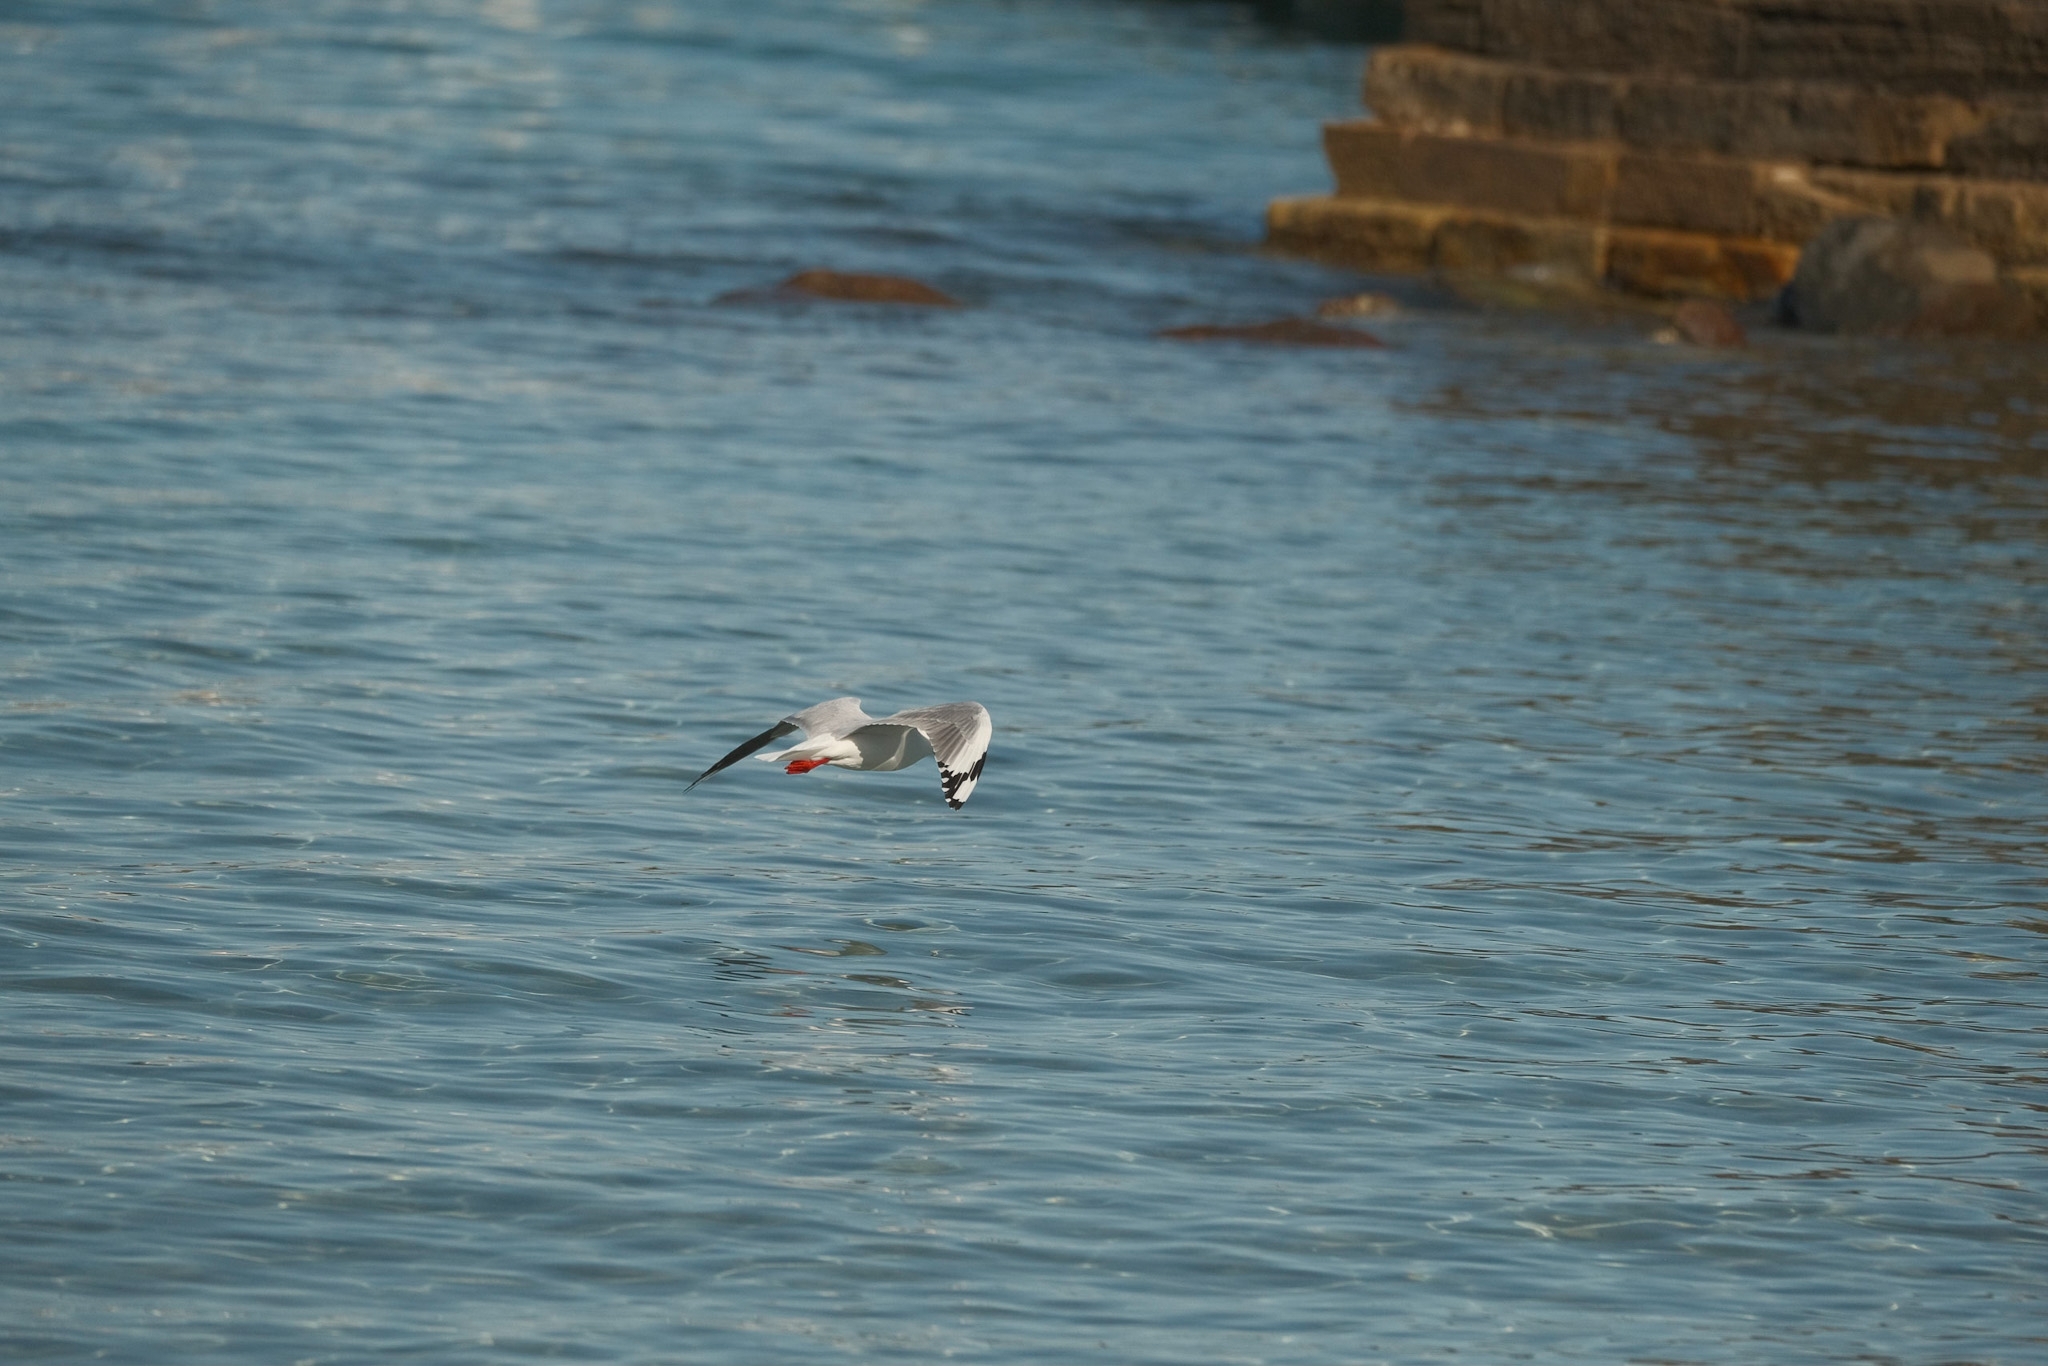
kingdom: Animalia
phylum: Chordata
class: Aves
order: Charadriiformes
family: Laridae
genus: Chroicocephalus
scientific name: Chroicocephalus novaehollandiae
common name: Silver gull
